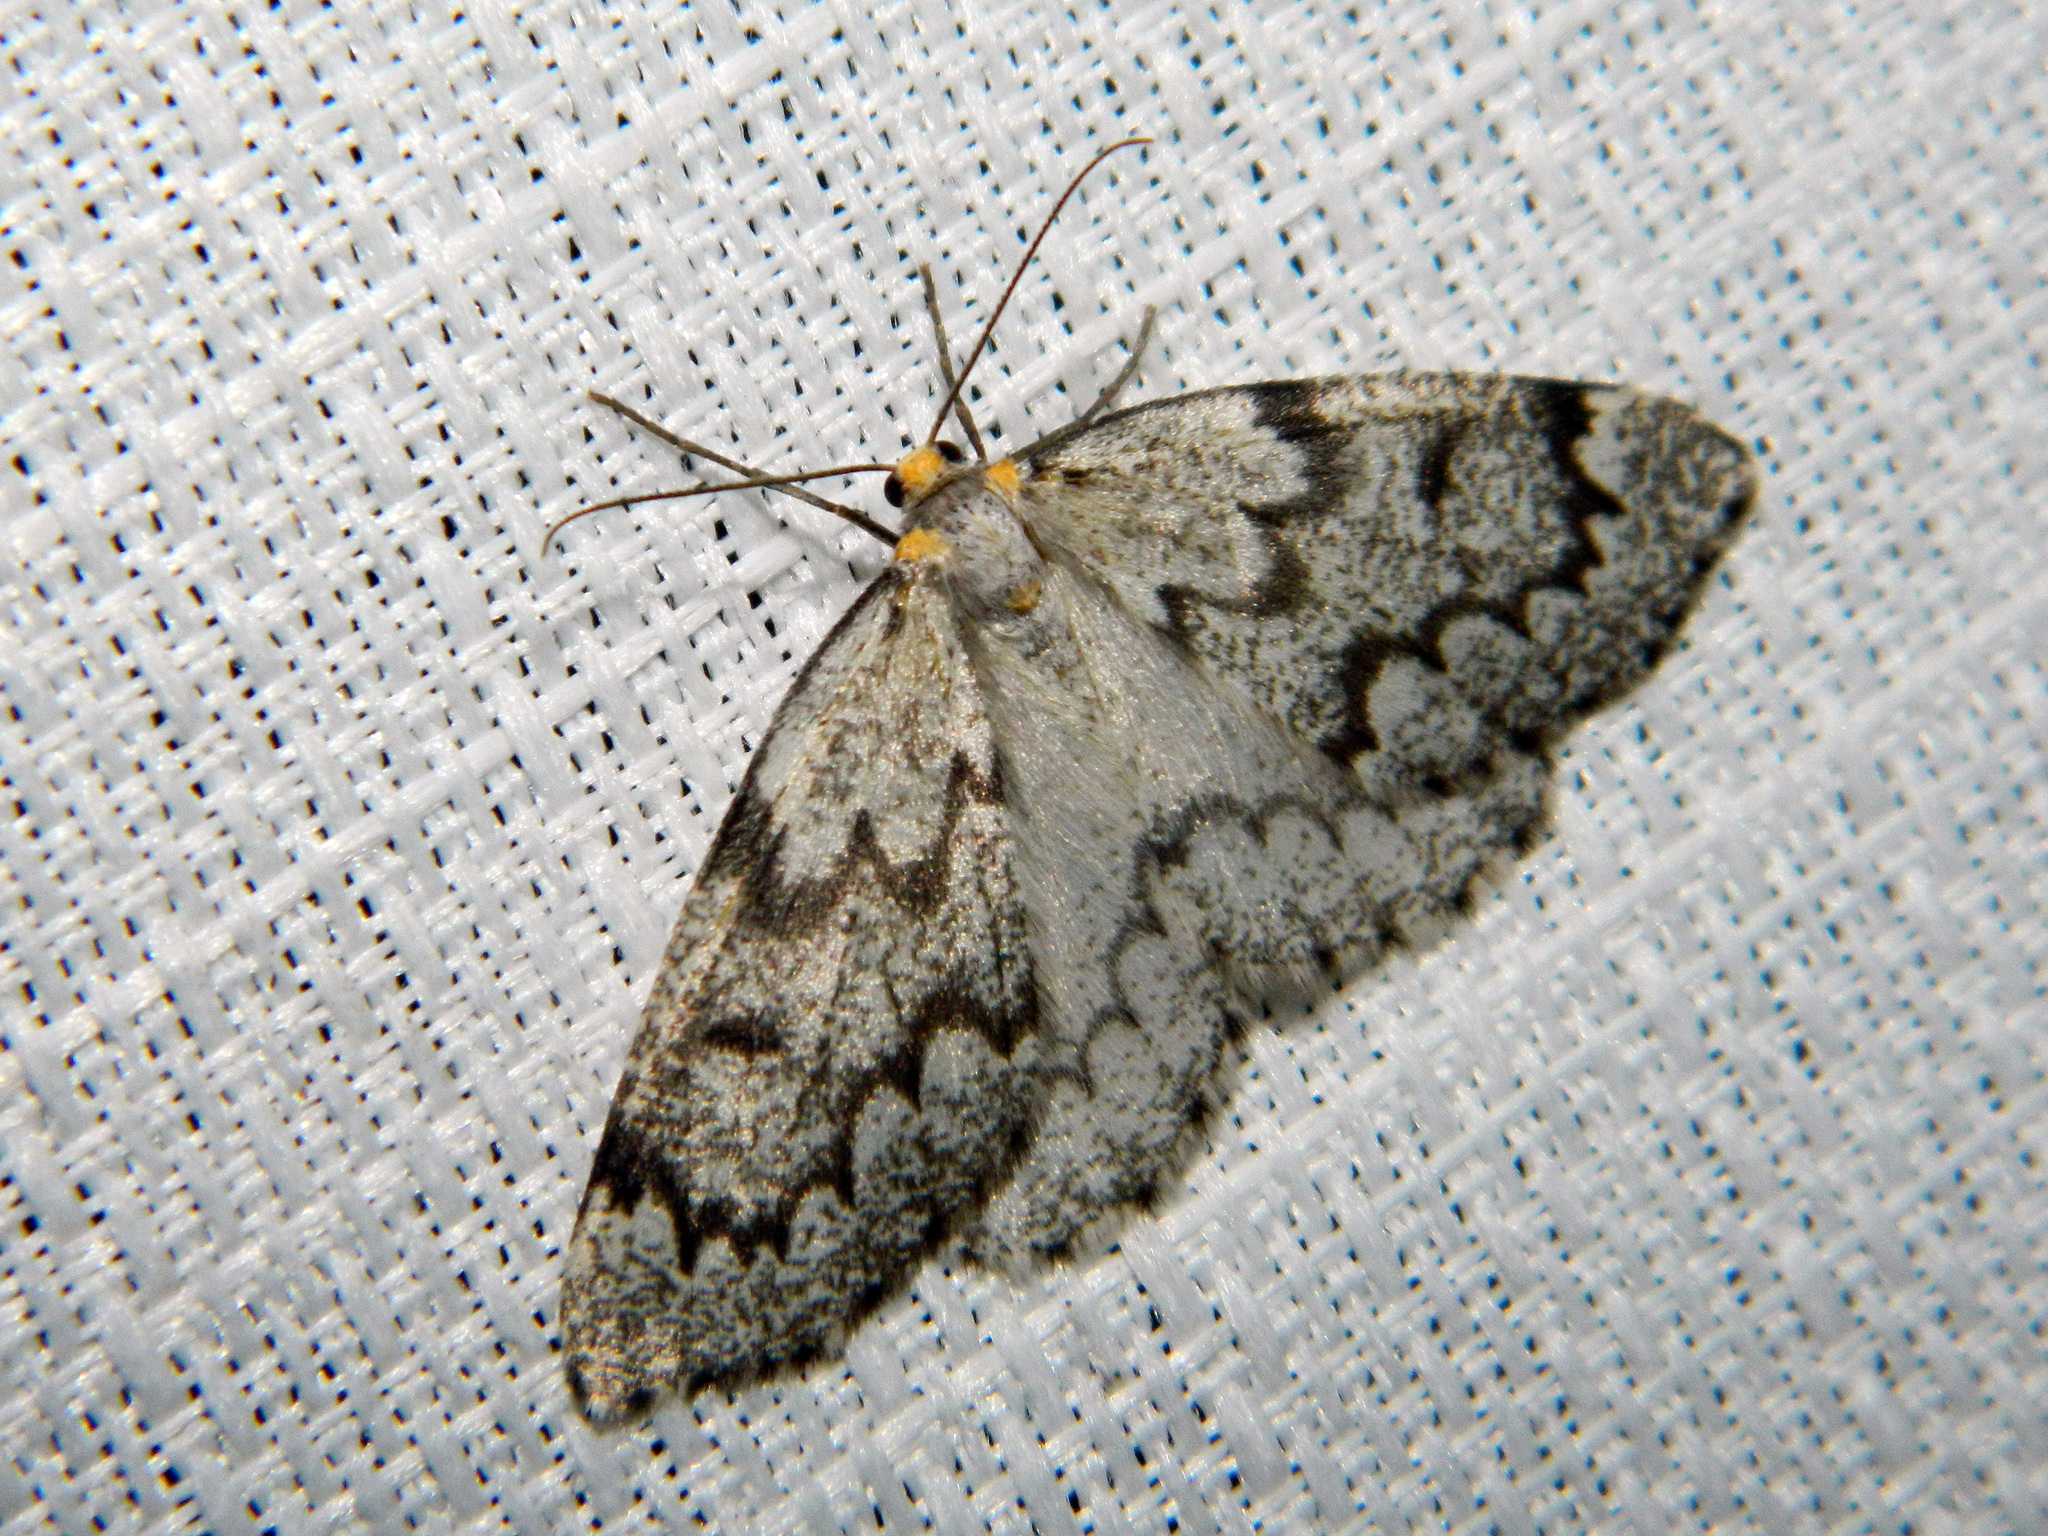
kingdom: Animalia
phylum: Arthropoda
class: Insecta
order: Lepidoptera
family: Geometridae
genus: Nepytia
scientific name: Nepytia canosaria
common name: False hemlock looper
